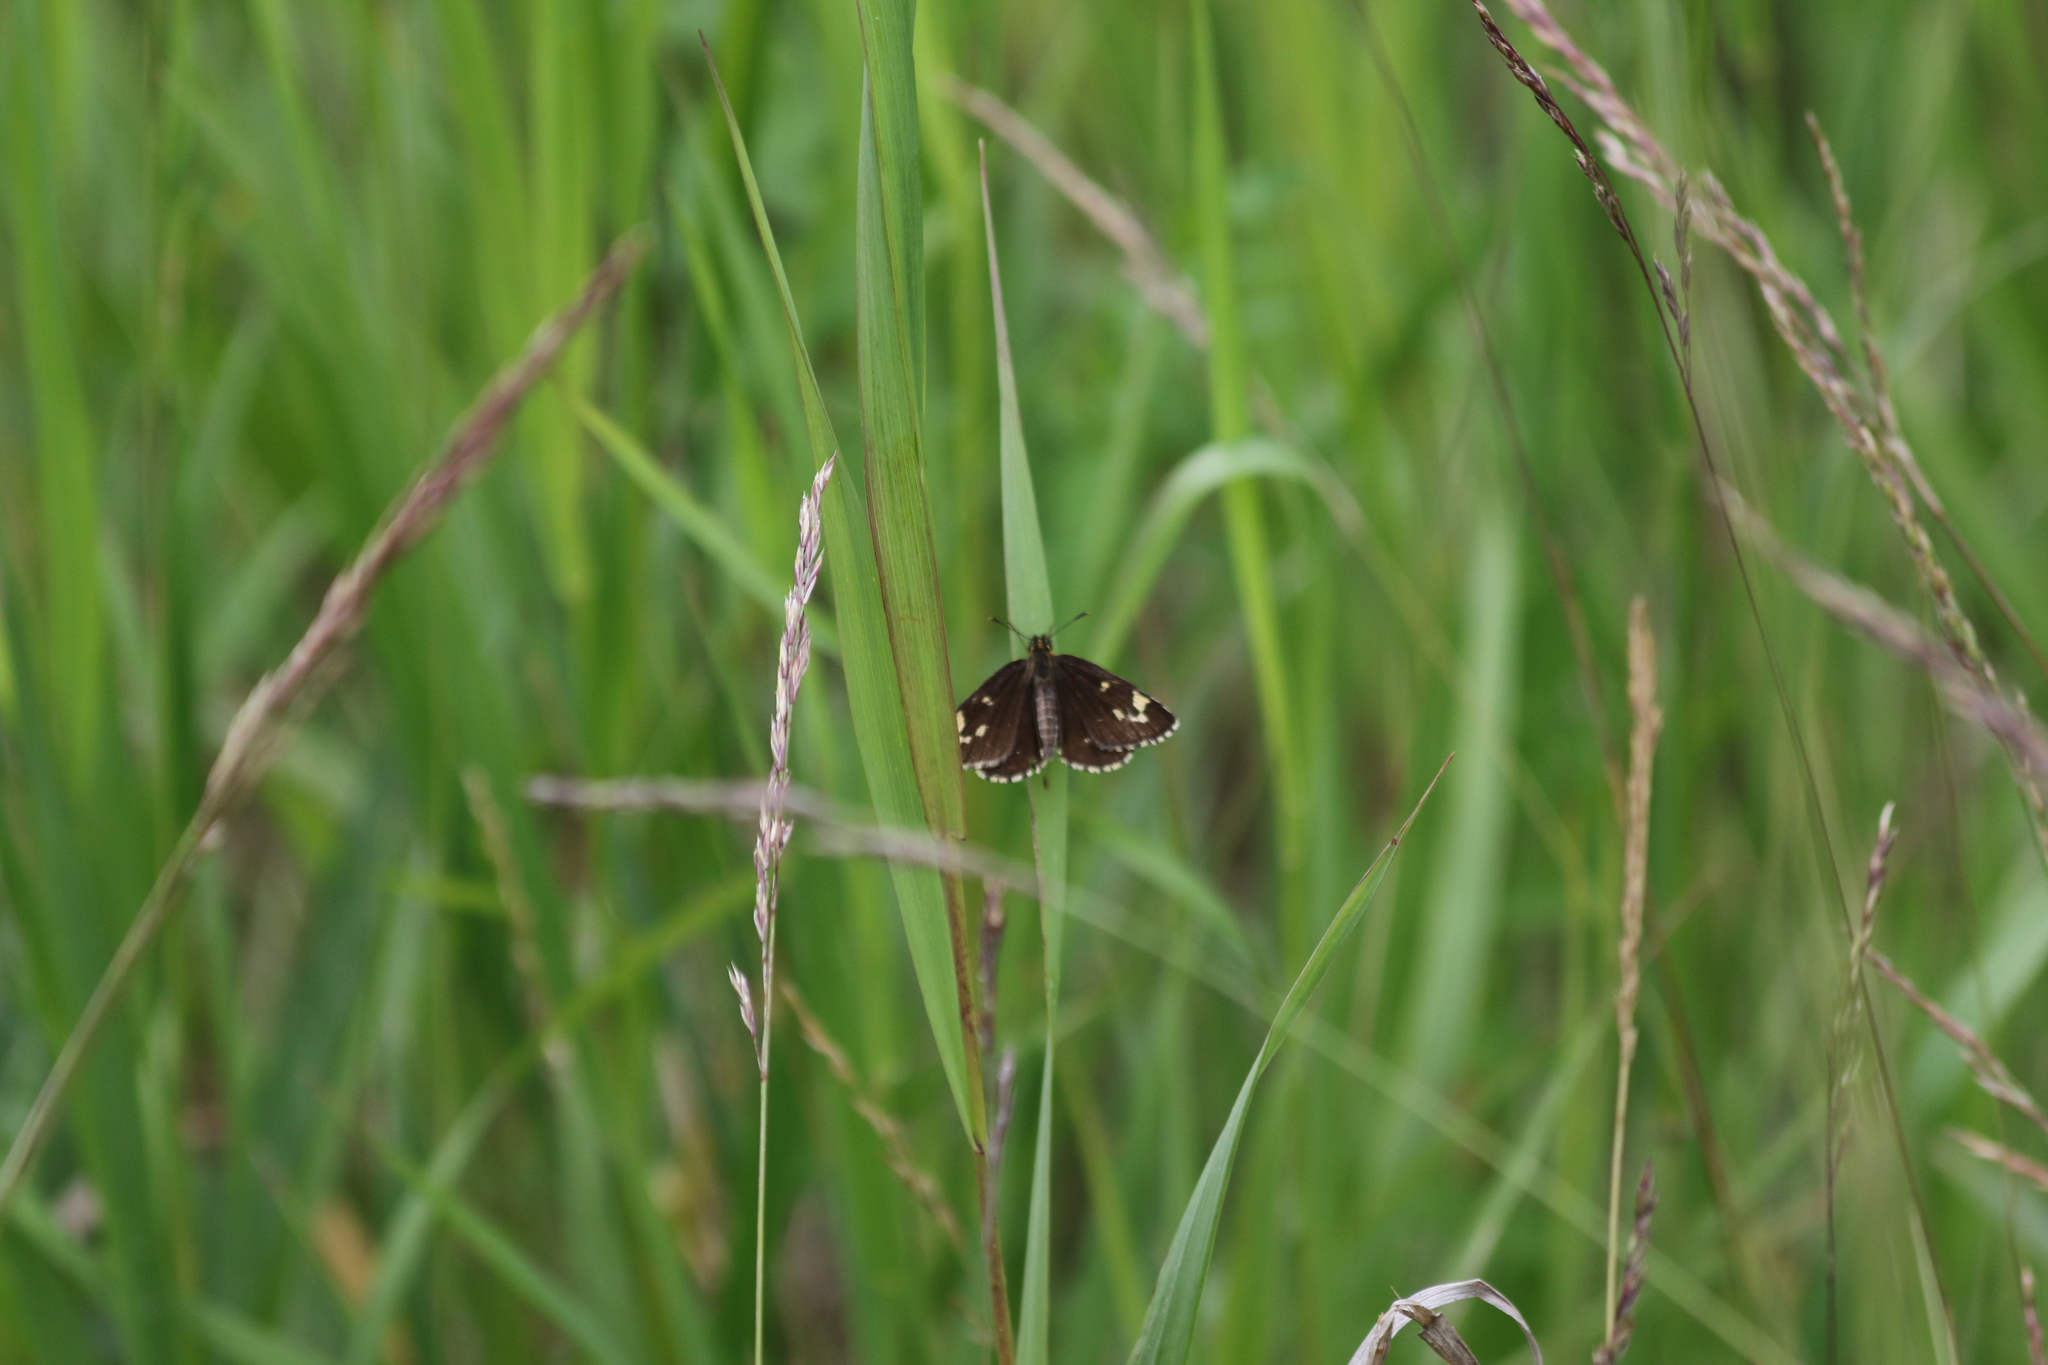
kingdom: Animalia
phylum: Arthropoda
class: Insecta
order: Lepidoptera
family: Hesperiidae
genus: Heteropterus
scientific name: Heteropterus morpheus
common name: Large chequered skipper
